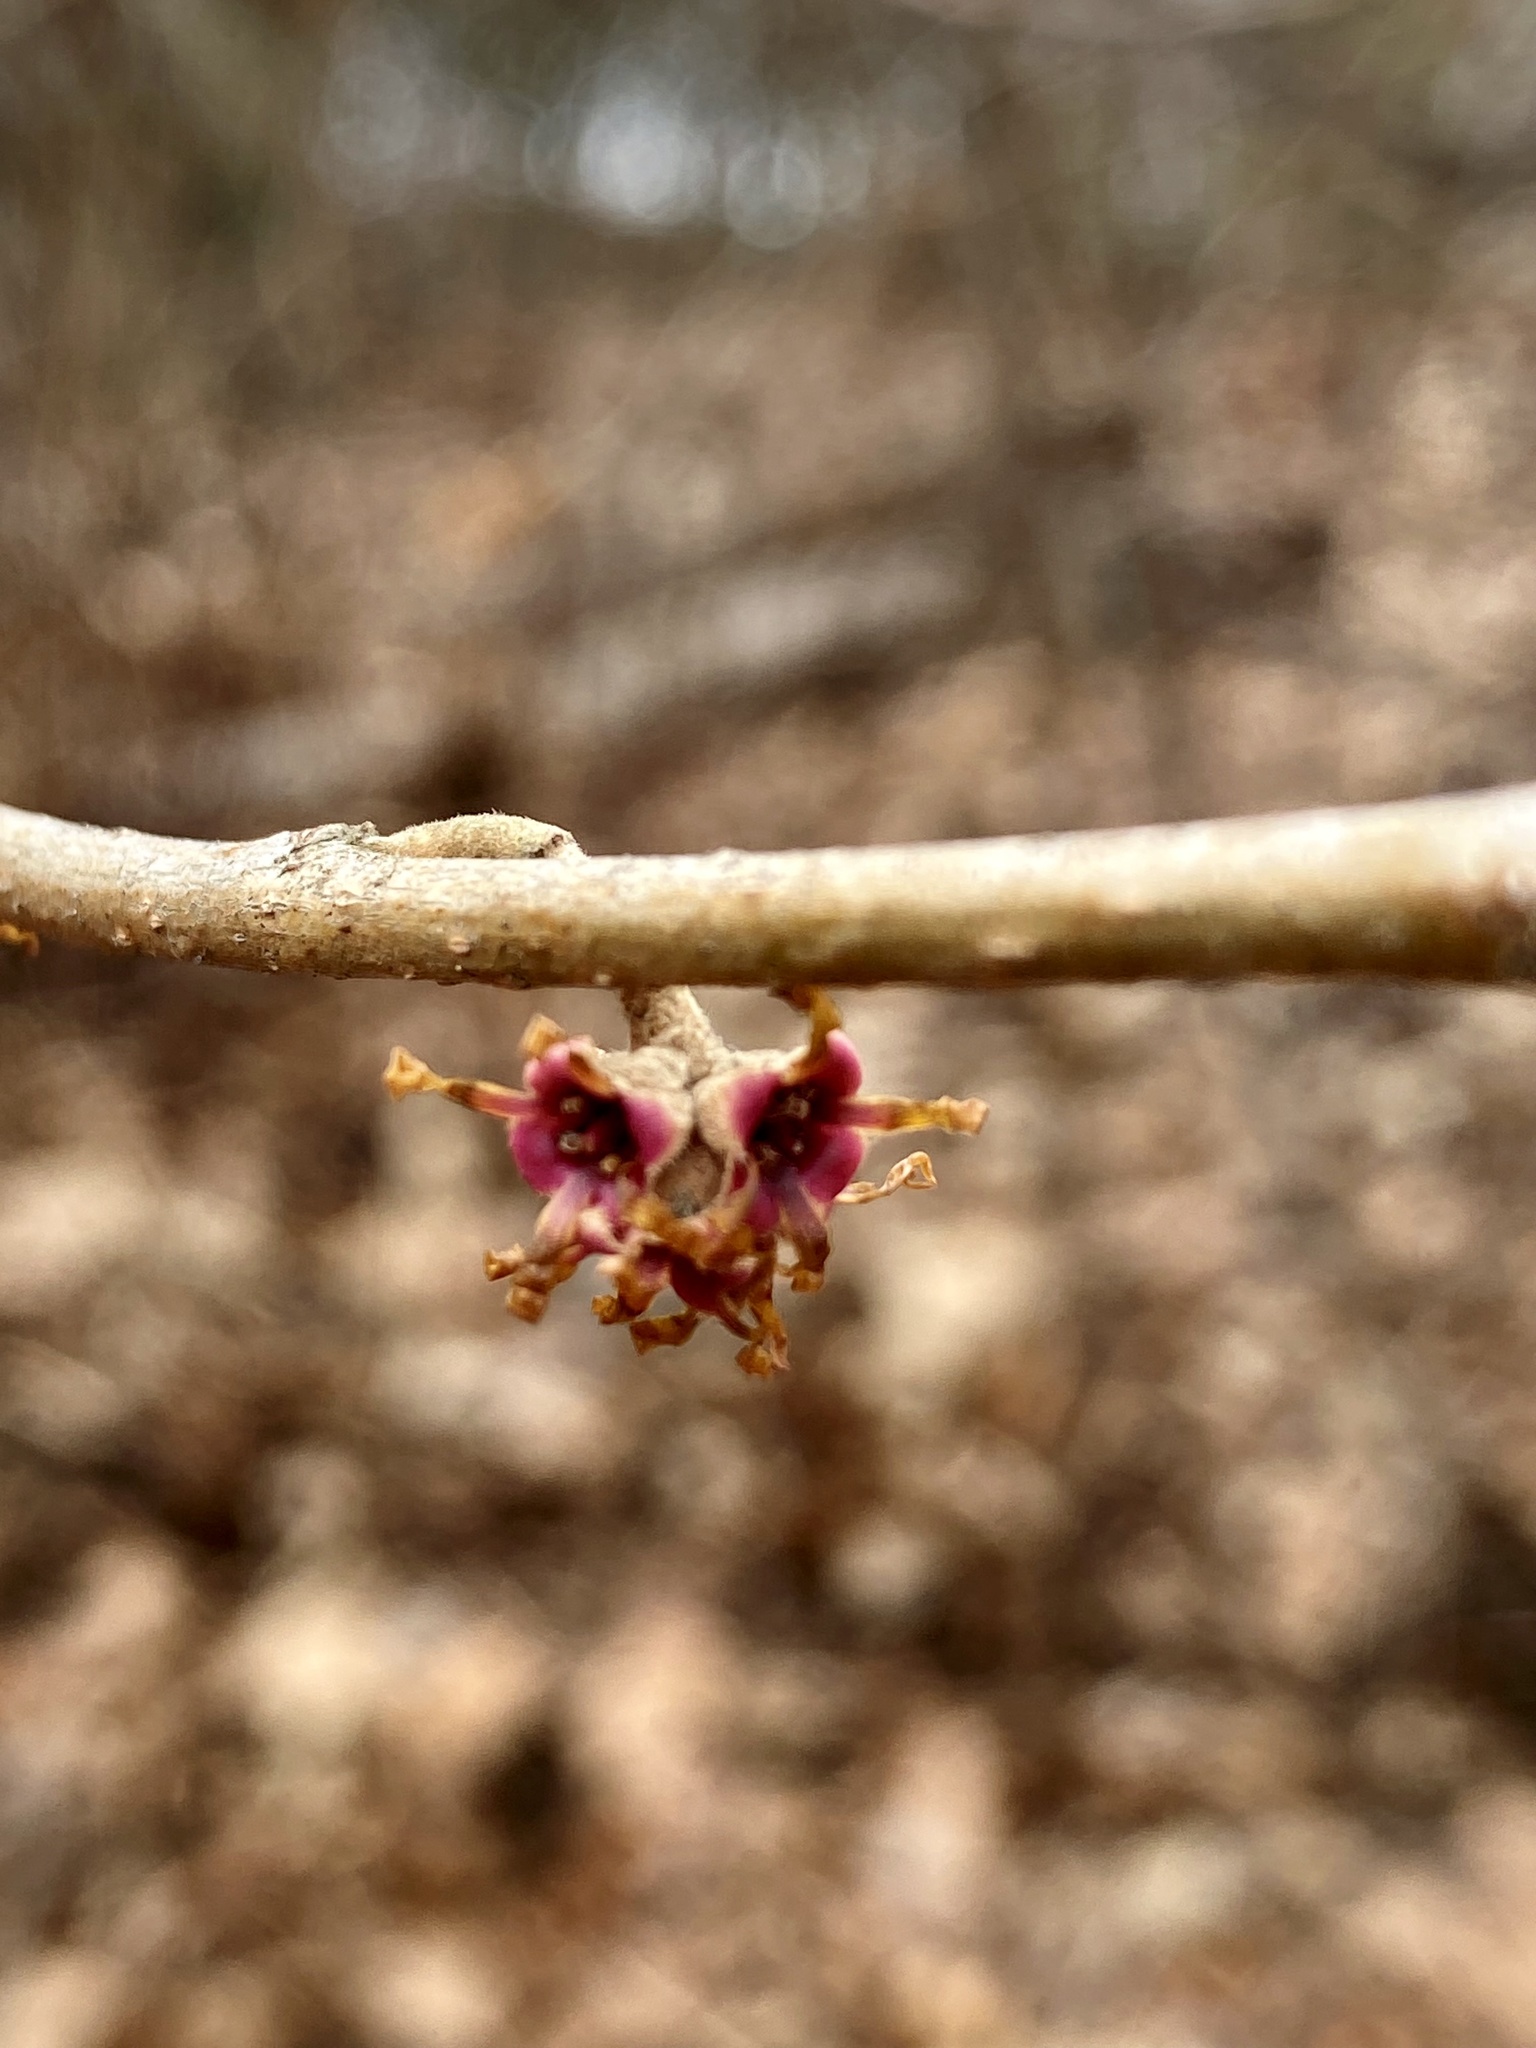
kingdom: Plantae
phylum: Tracheophyta
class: Magnoliopsida
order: Saxifragales
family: Hamamelidaceae
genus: Hamamelis
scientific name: Hamamelis vernalis
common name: Ozark witch-hazel
